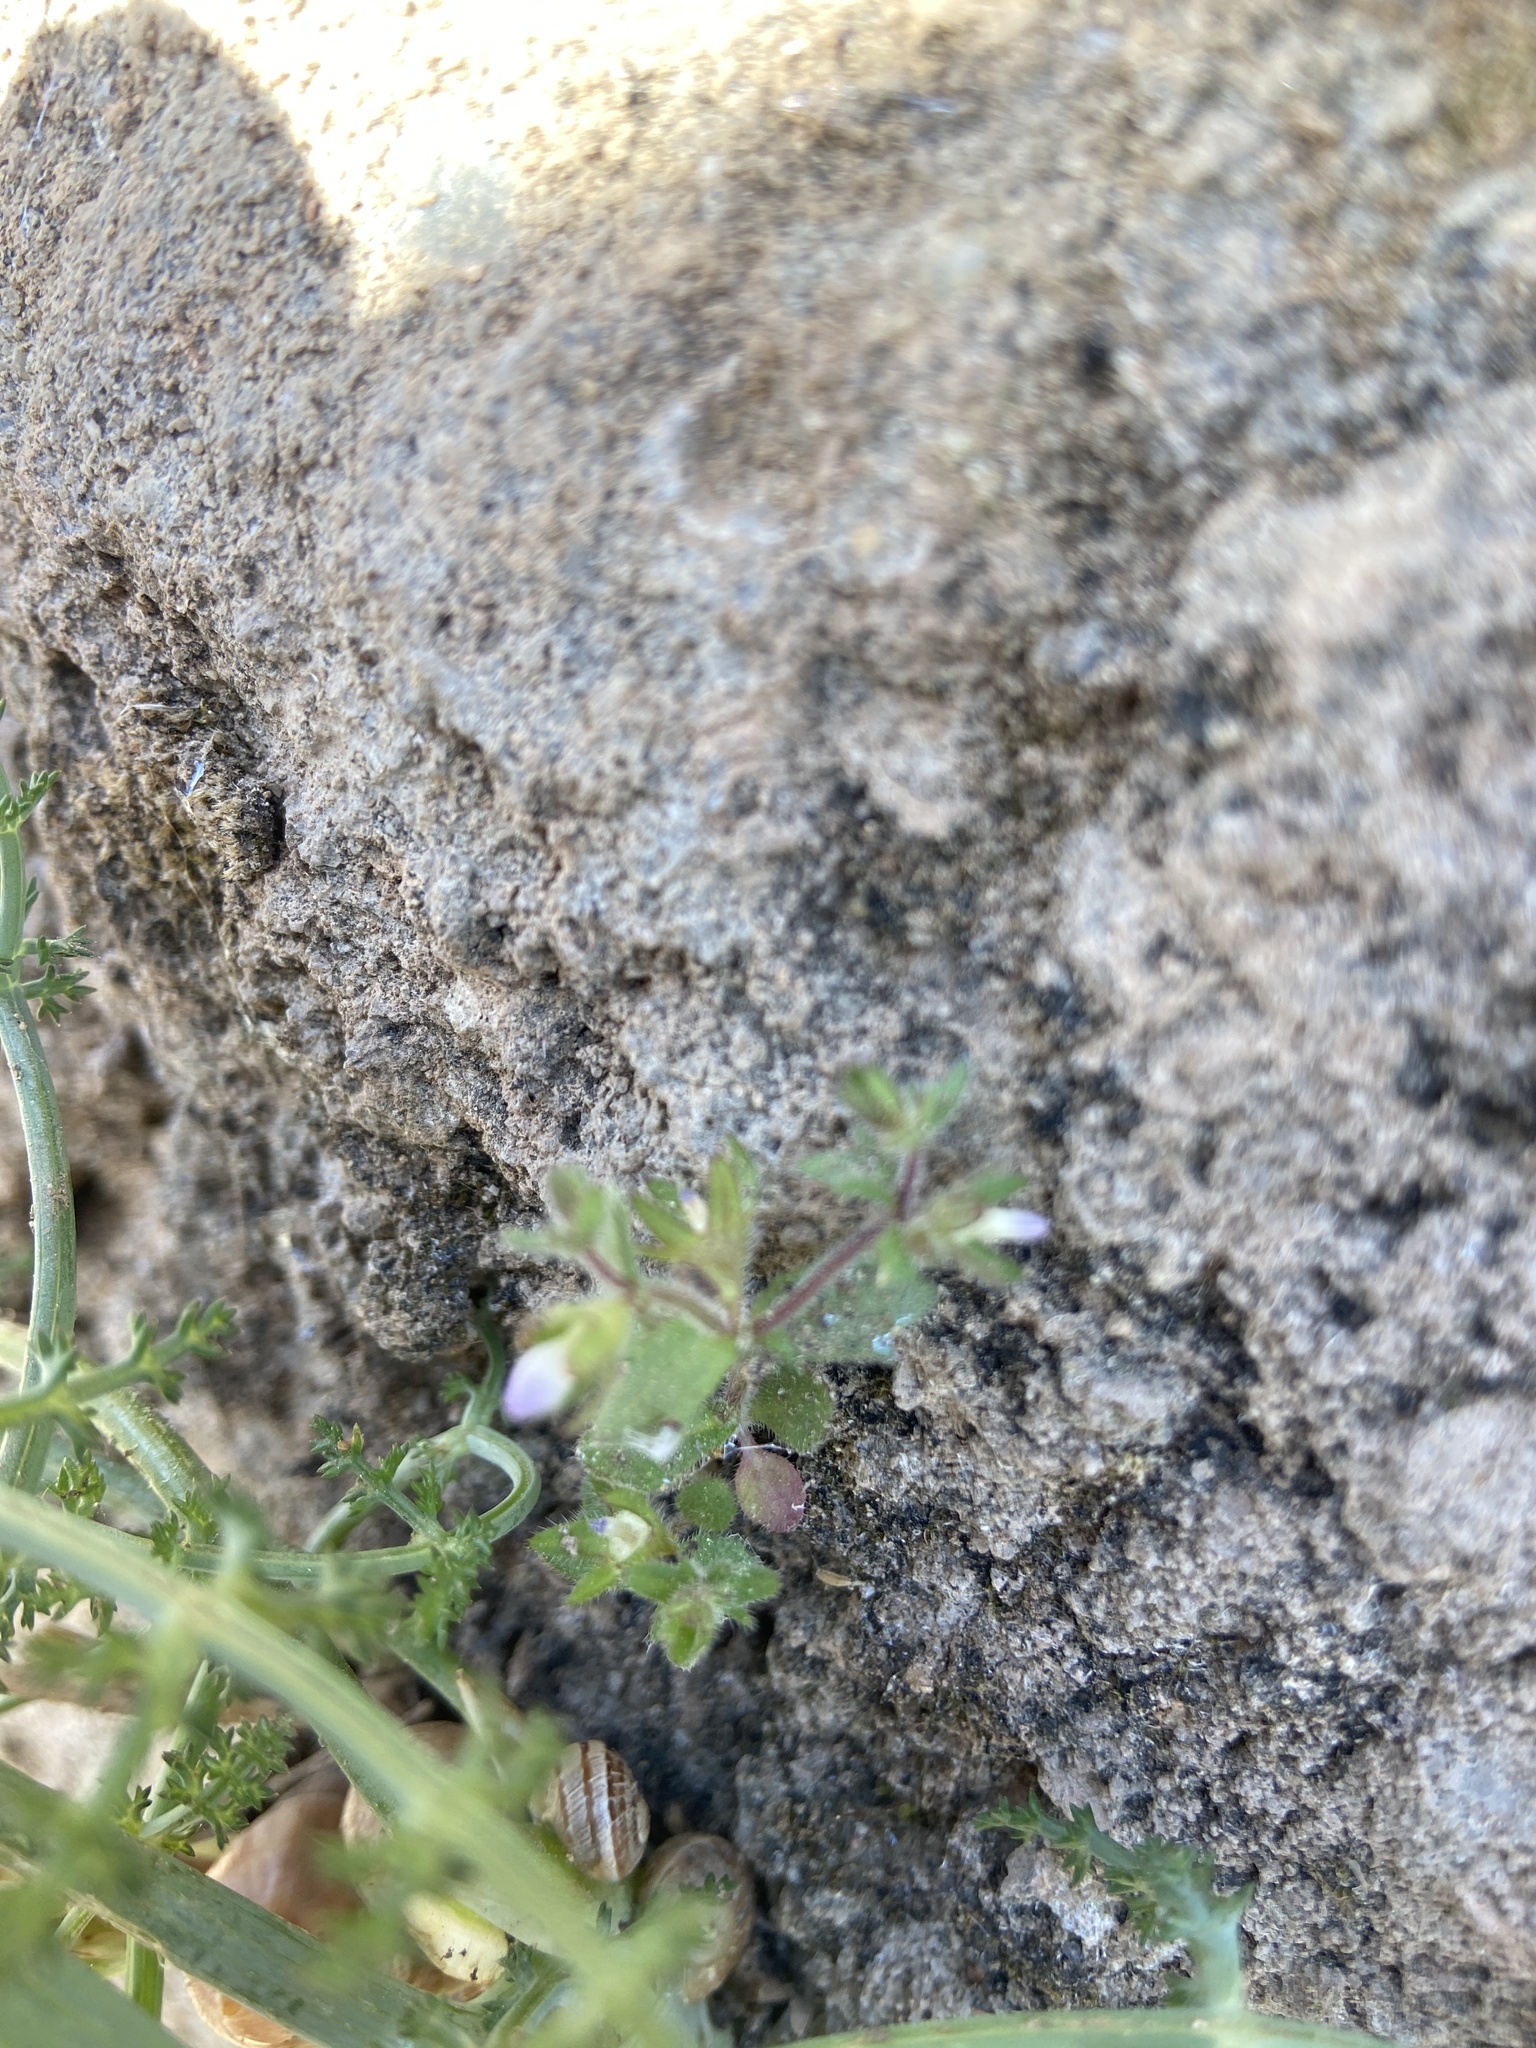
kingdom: Plantae
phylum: Tracheophyta
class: Magnoliopsida
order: Asterales
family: Campanulaceae
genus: Campanula
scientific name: Campanula erinus
